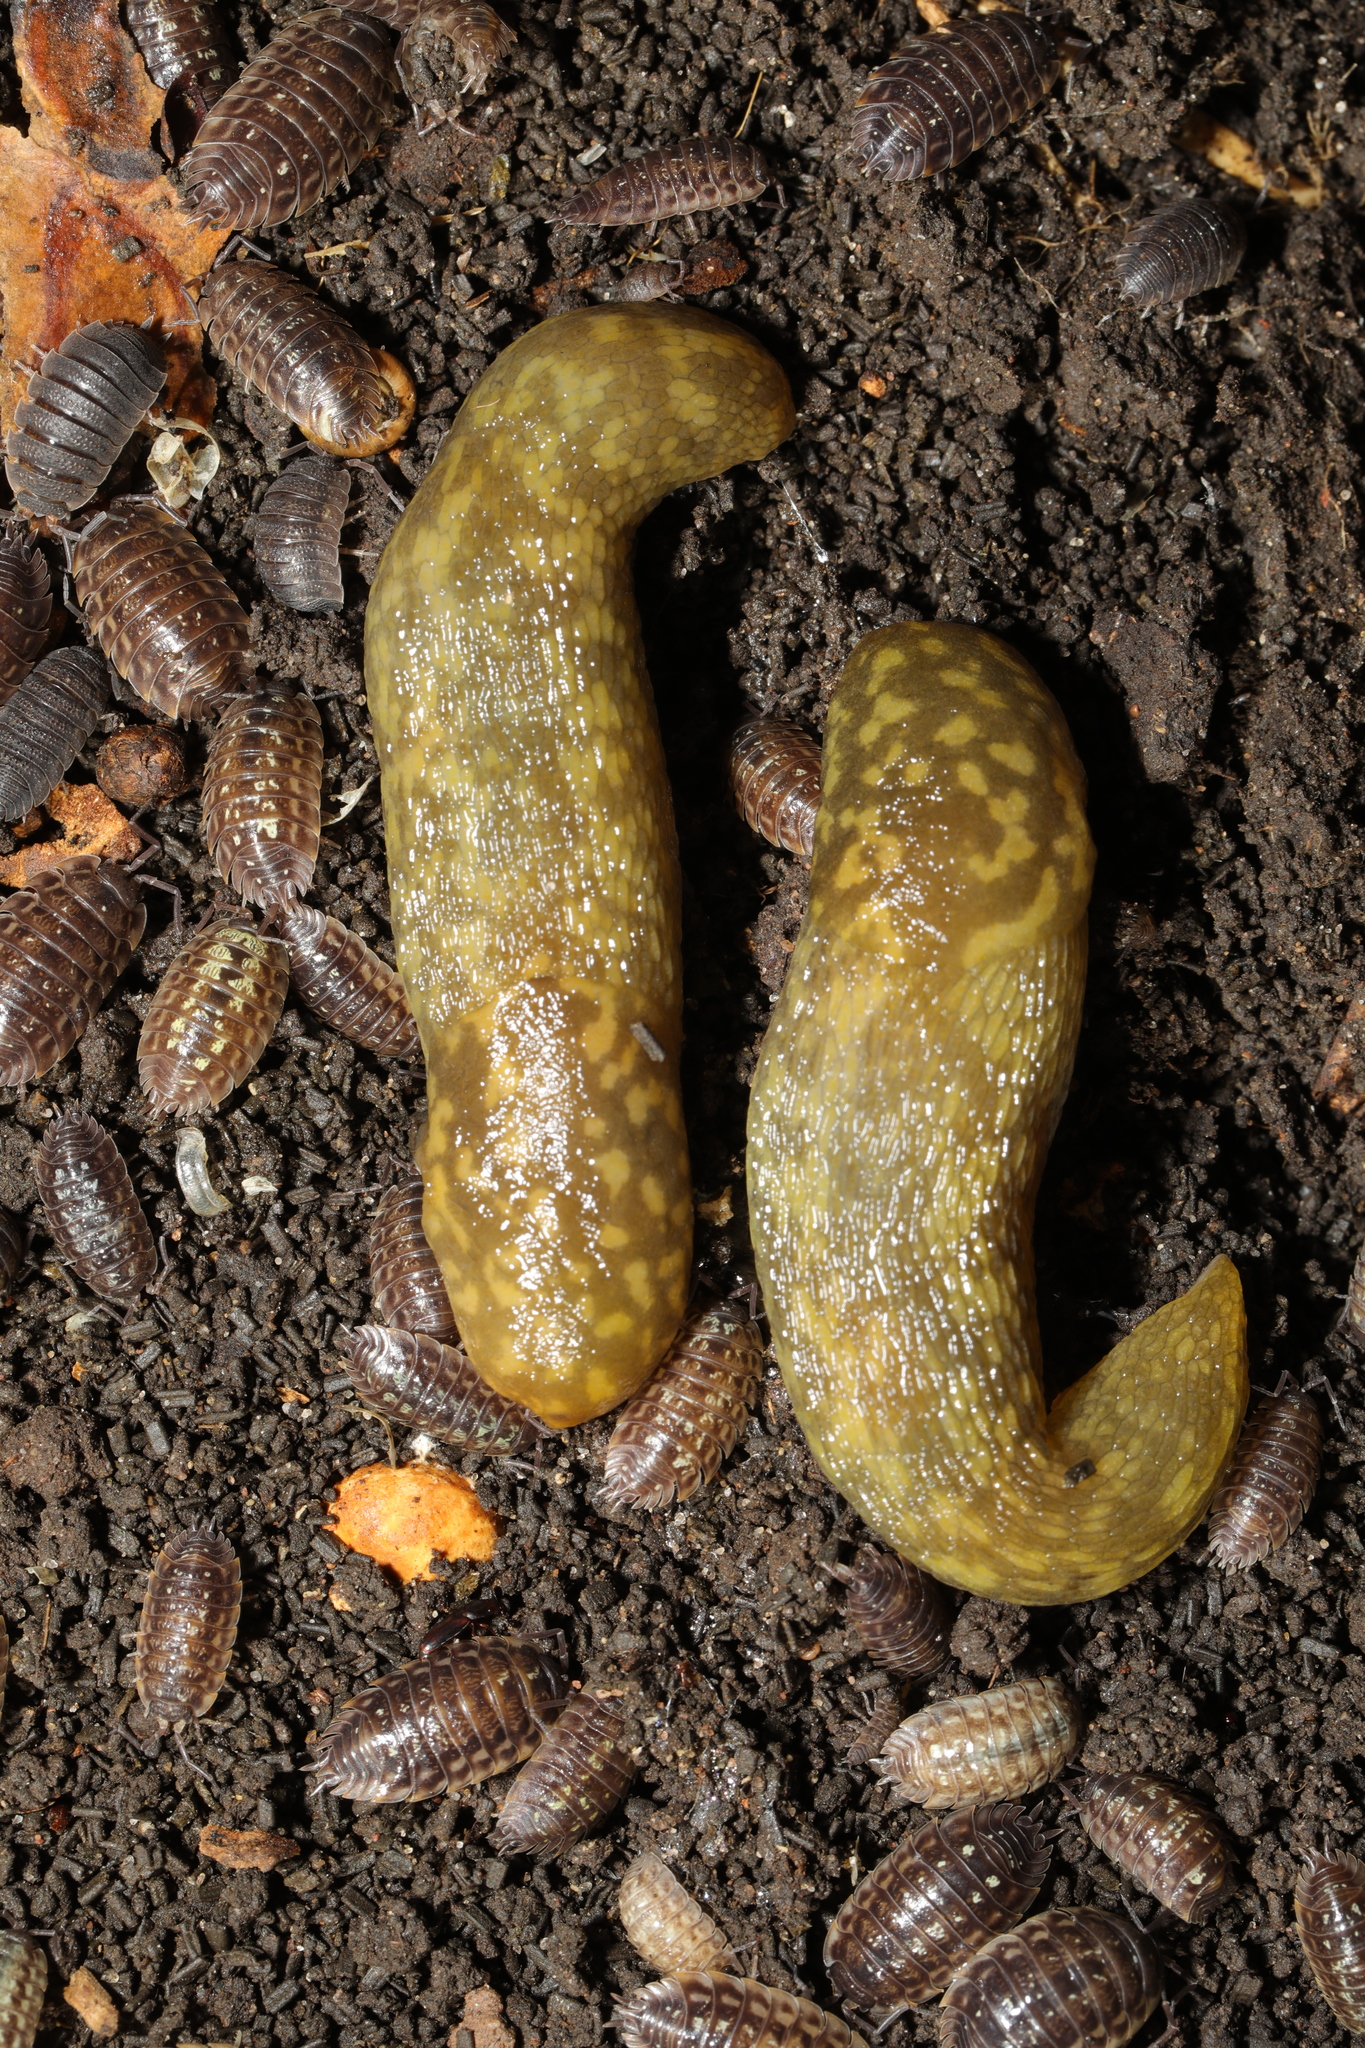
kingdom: Animalia
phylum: Mollusca
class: Gastropoda
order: Stylommatophora
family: Limacidae
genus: Limacus
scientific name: Limacus maculatus
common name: Irish yellow slug
